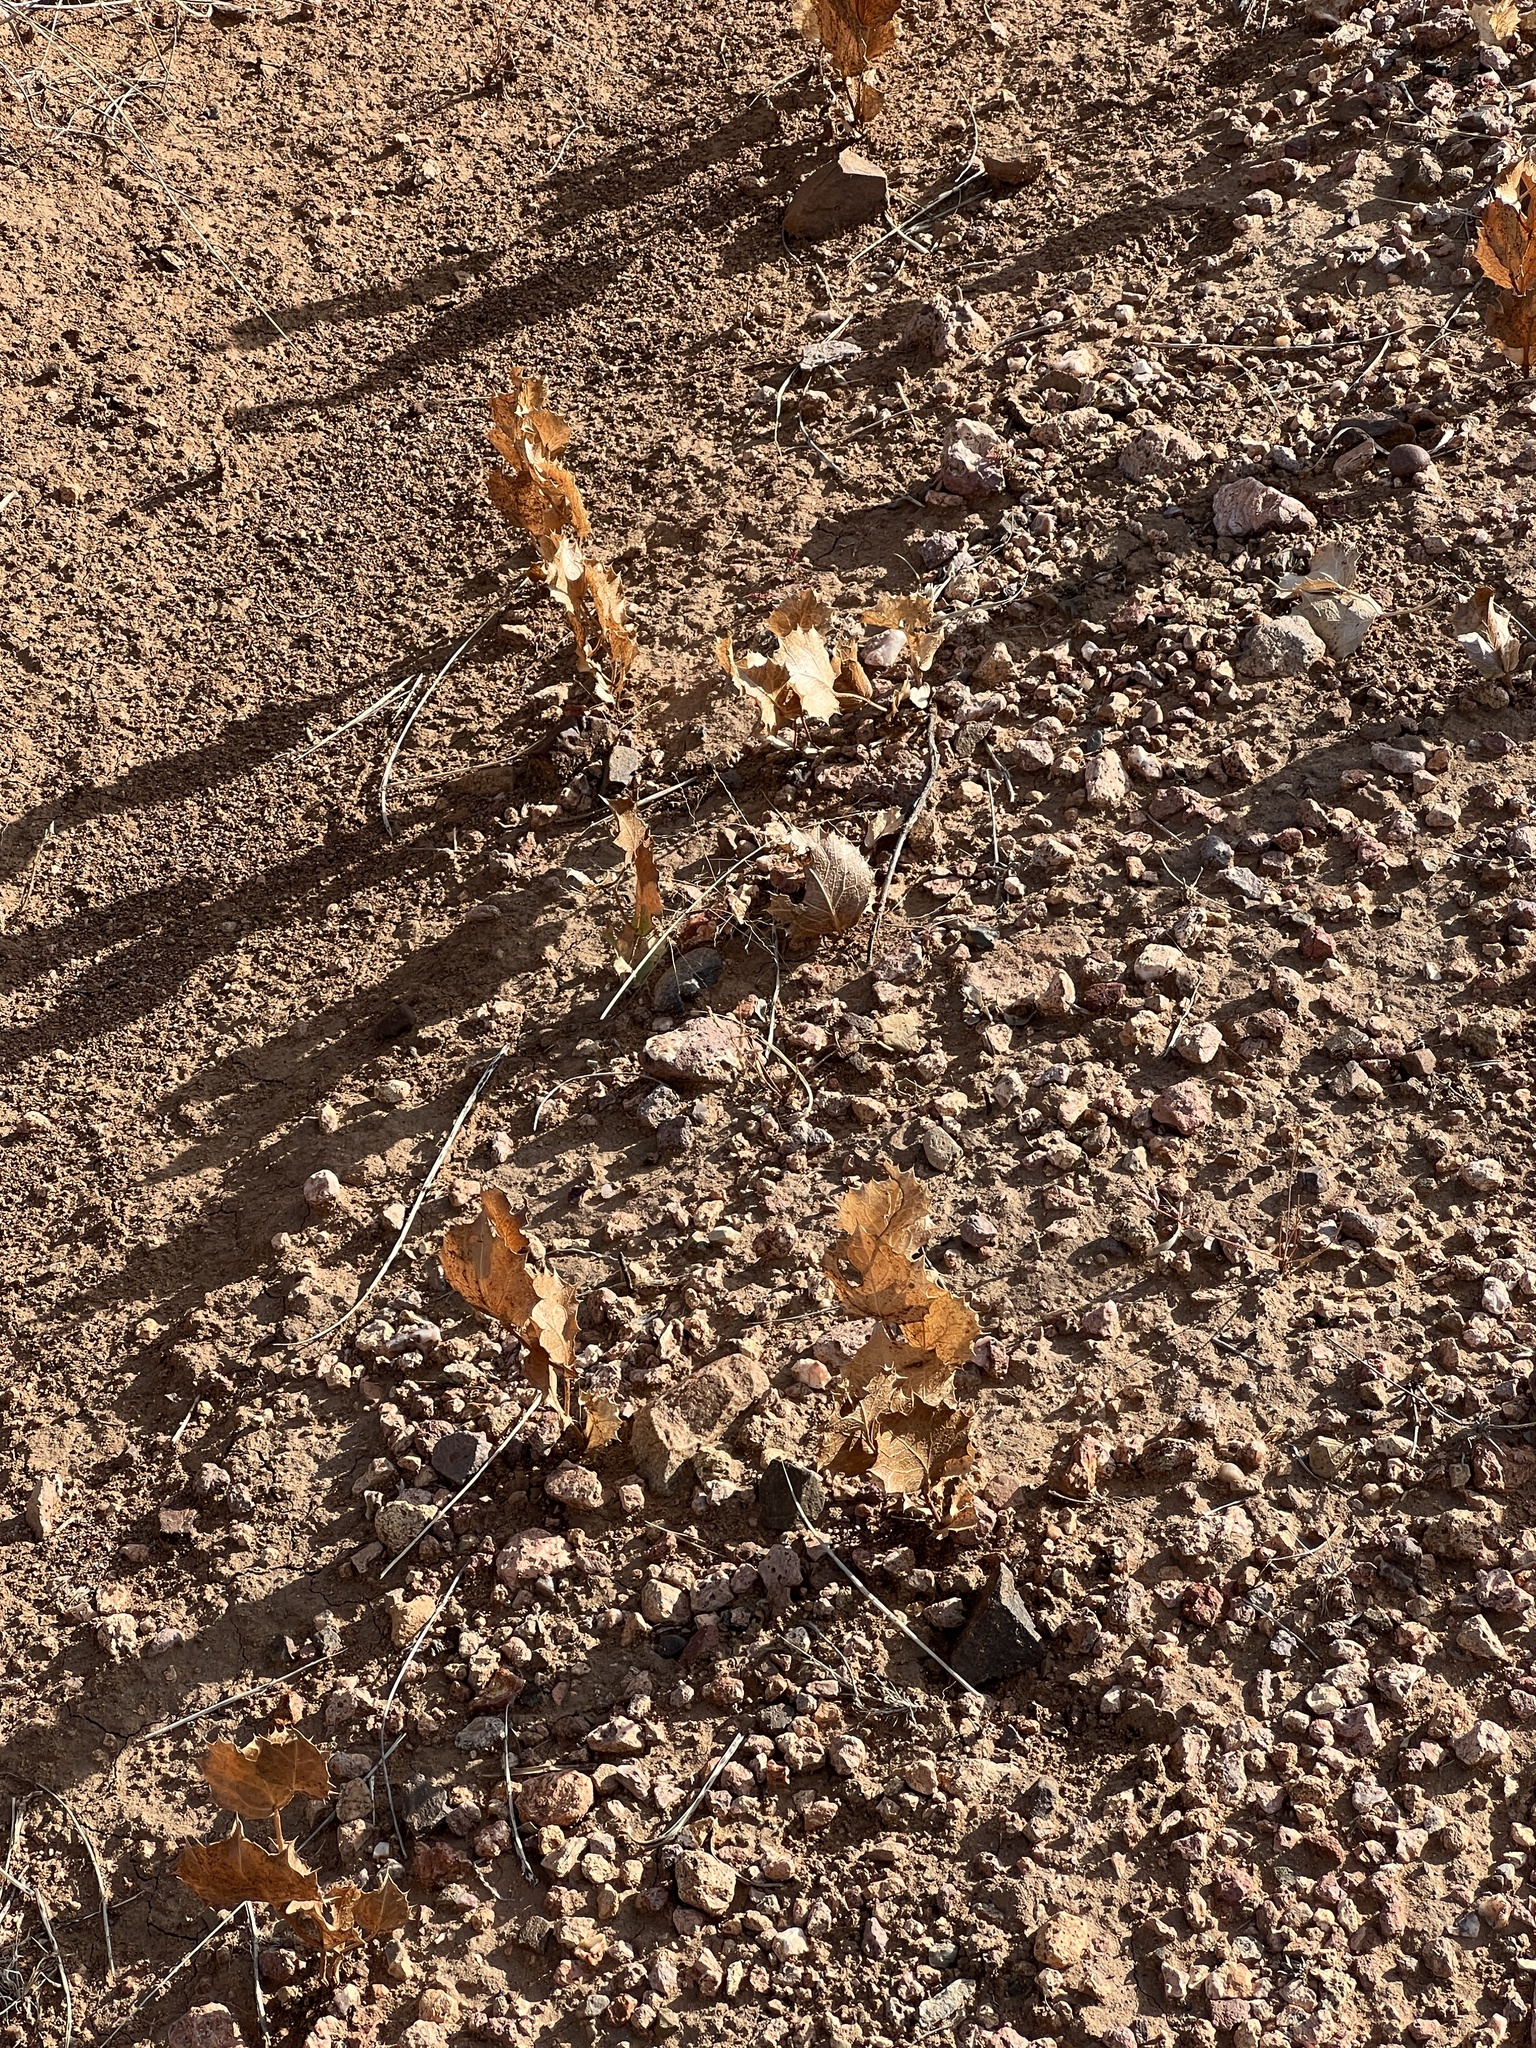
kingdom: Plantae
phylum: Tracheophyta
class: Magnoliopsida
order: Asterales
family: Asteraceae
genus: Acourtia
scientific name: Acourtia nana
